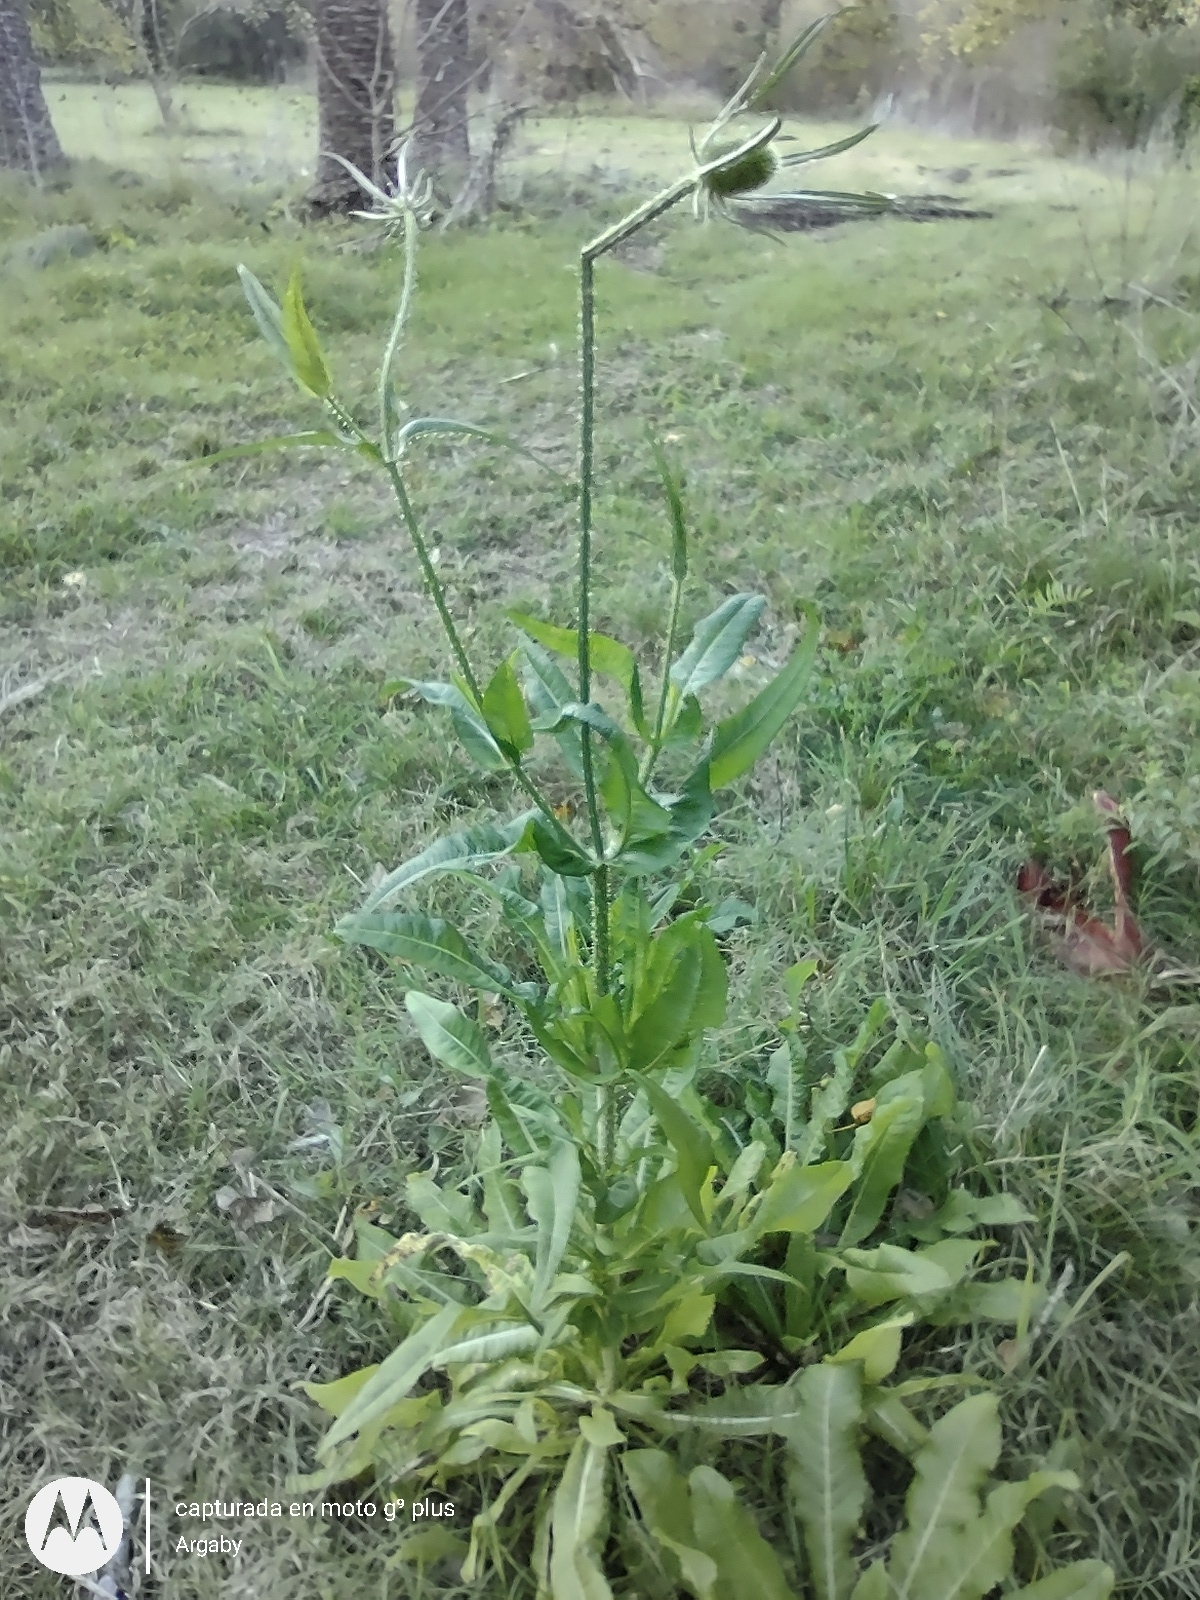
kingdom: Plantae
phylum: Tracheophyta
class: Magnoliopsida
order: Dipsacales
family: Caprifoliaceae
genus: Dipsacus
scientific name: Dipsacus fullonum
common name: Teasel
